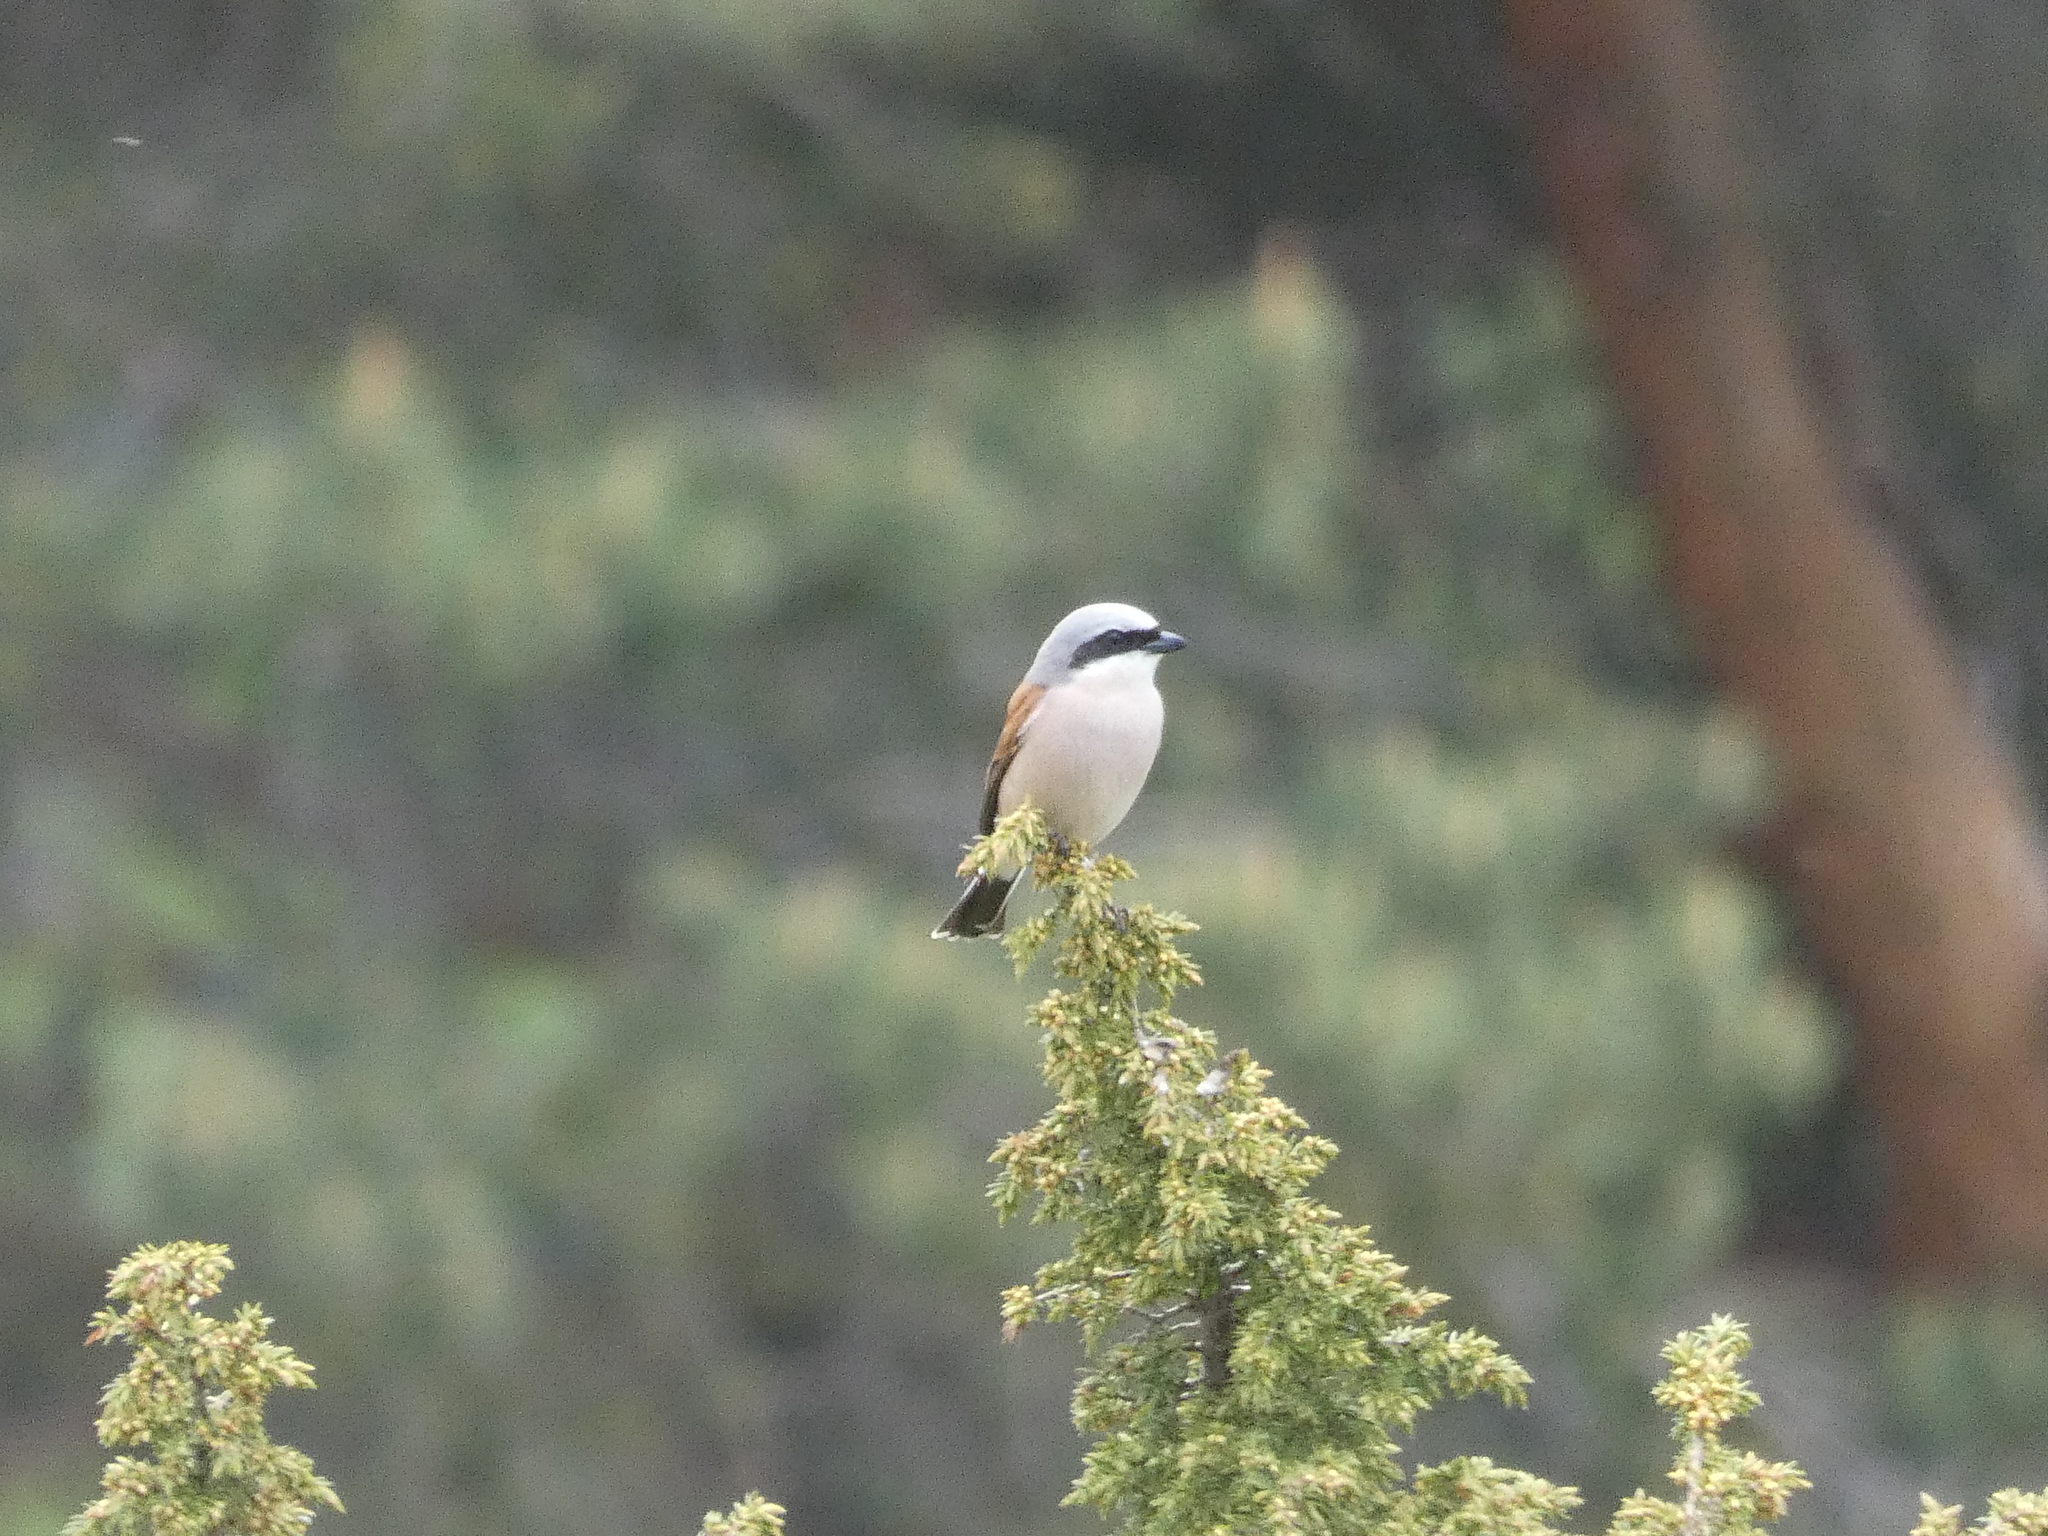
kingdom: Animalia
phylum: Chordata
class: Aves
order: Passeriformes
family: Laniidae
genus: Lanius
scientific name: Lanius collurio
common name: Red-backed shrike
